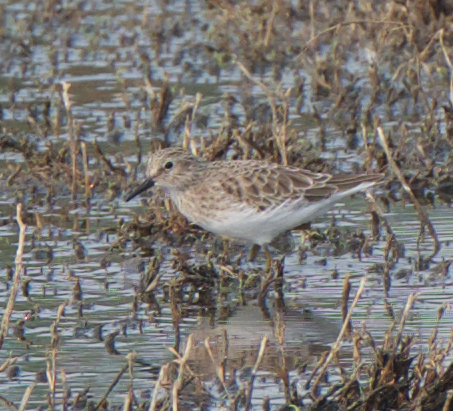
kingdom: Animalia
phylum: Chordata
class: Aves
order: Charadriiformes
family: Scolopacidae
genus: Calidris
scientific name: Calidris minutilla
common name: Least sandpiper
